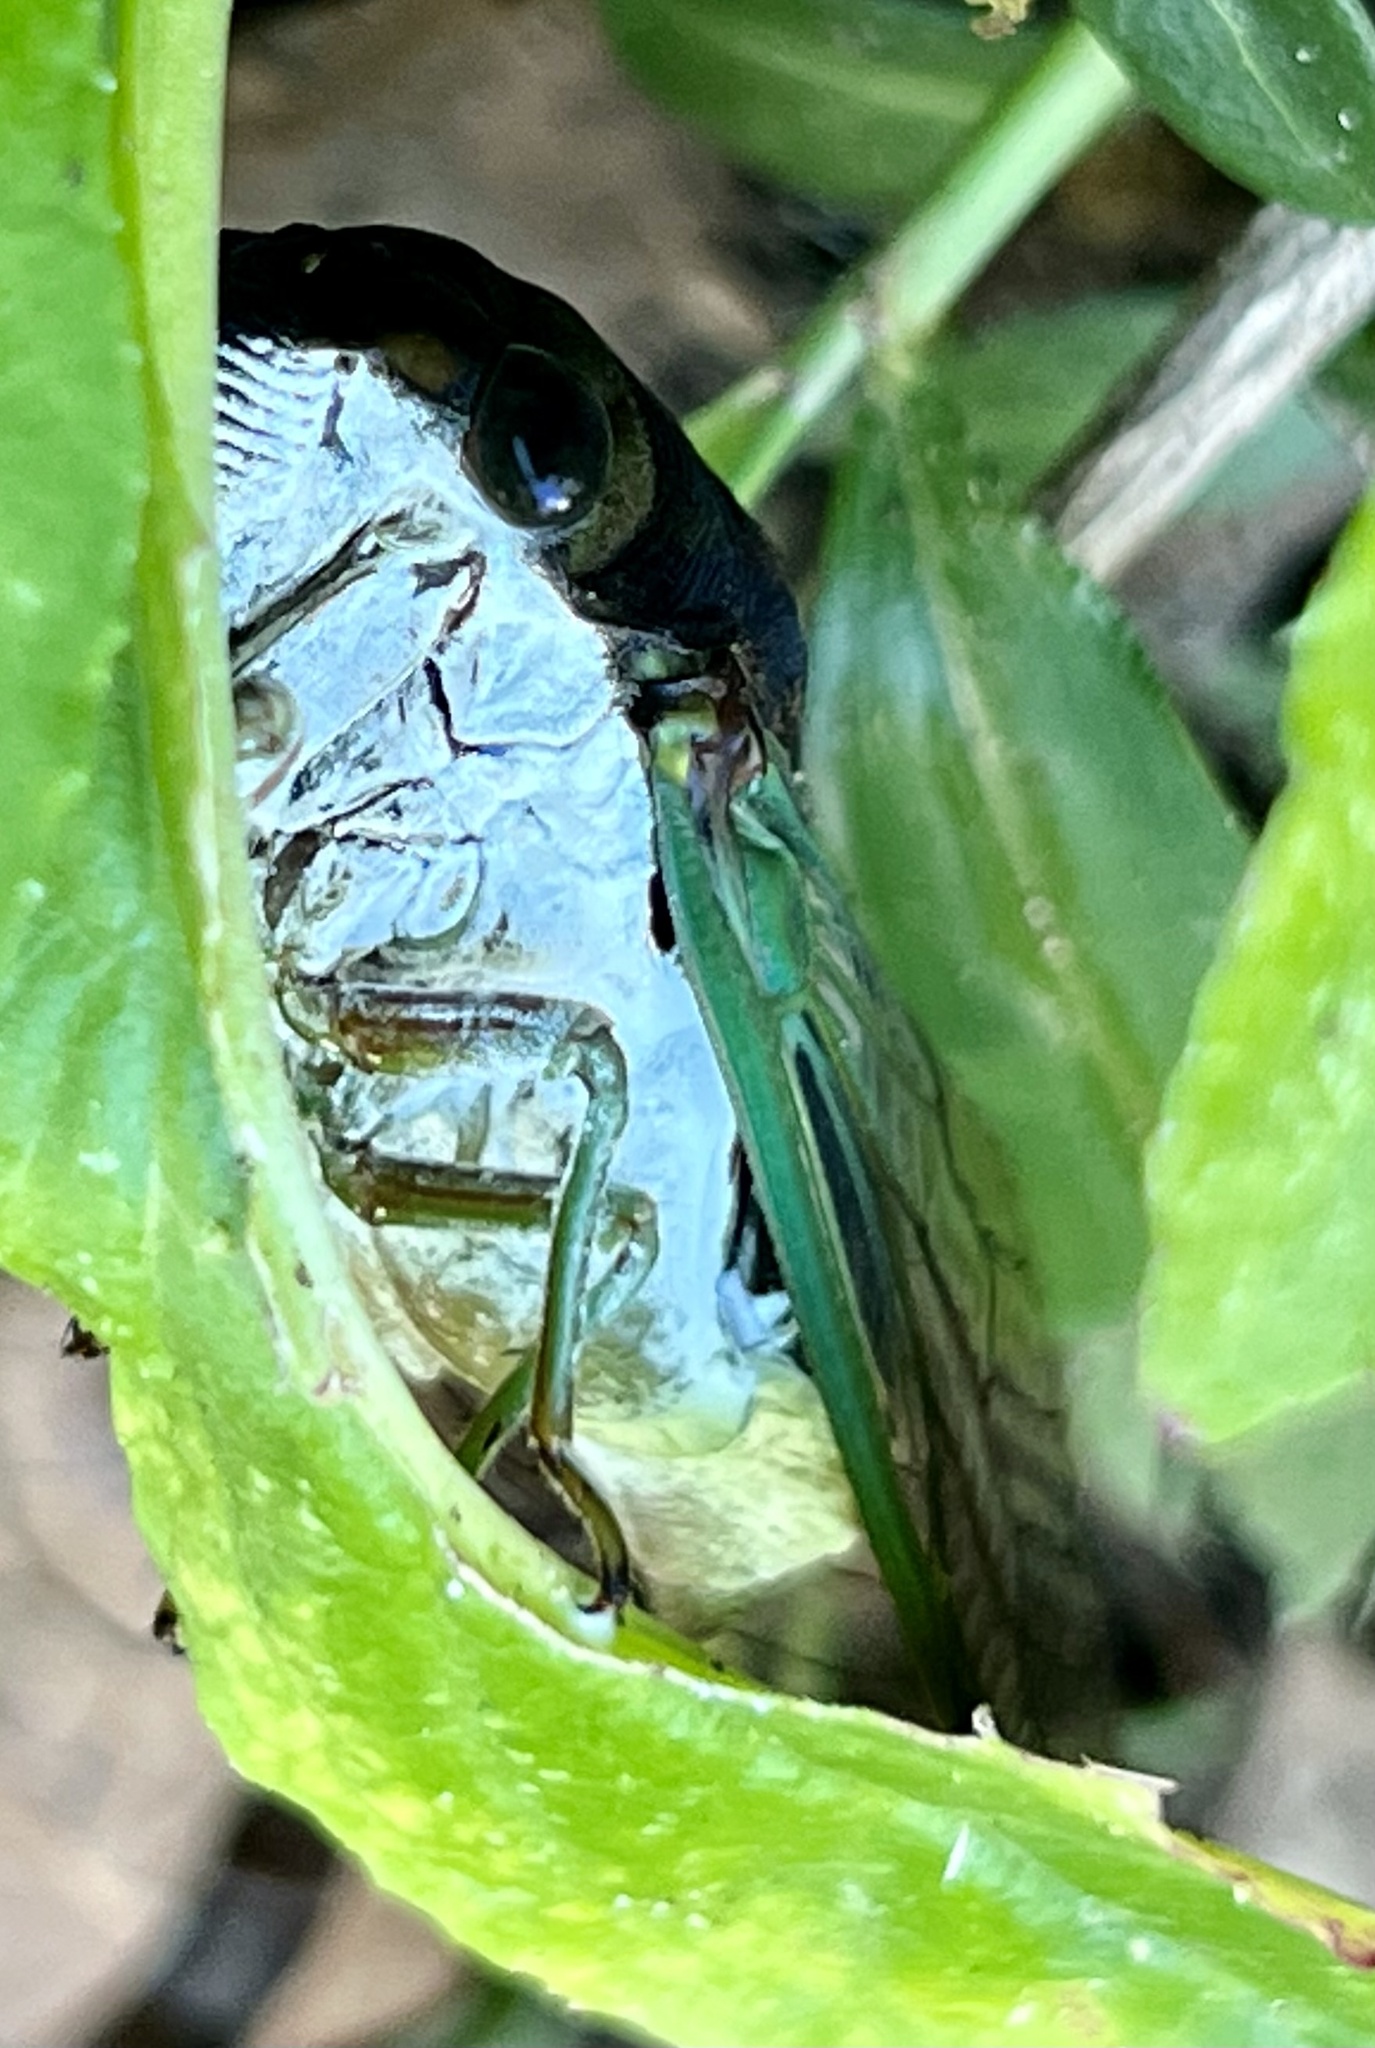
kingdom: Animalia
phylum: Arthropoda
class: Insecta
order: Hemiptera
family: Cicadidae
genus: Neotibicen
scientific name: Neotibicen tibicen
